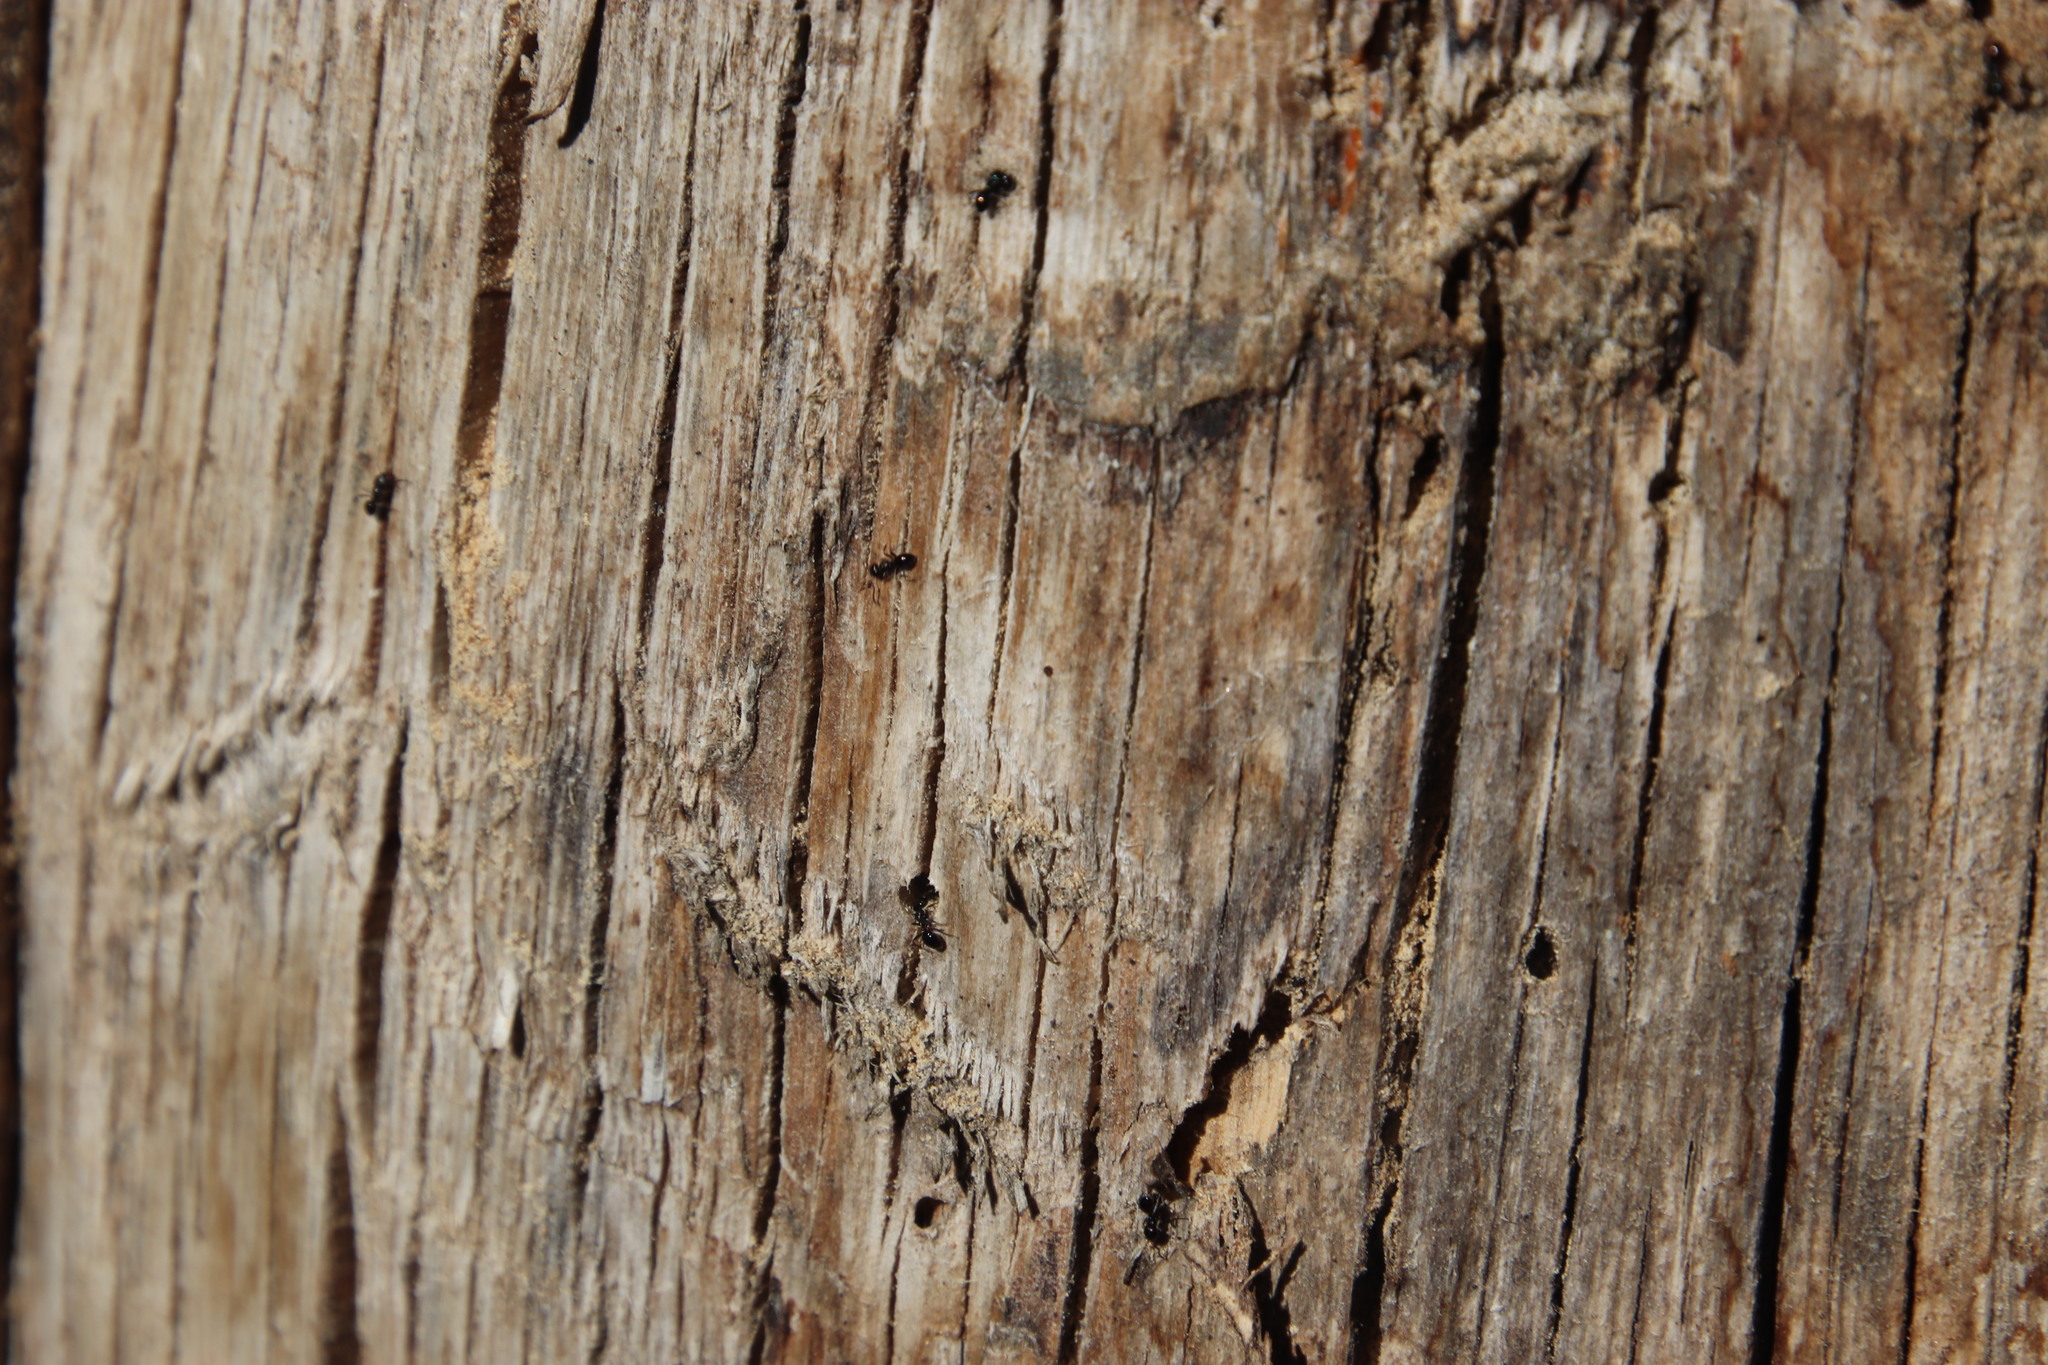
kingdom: Animalia
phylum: Arthropoda
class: Insecta
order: Hymenoptera
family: Formicidae
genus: Crematogaster
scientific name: Crematogaster peringueyi
